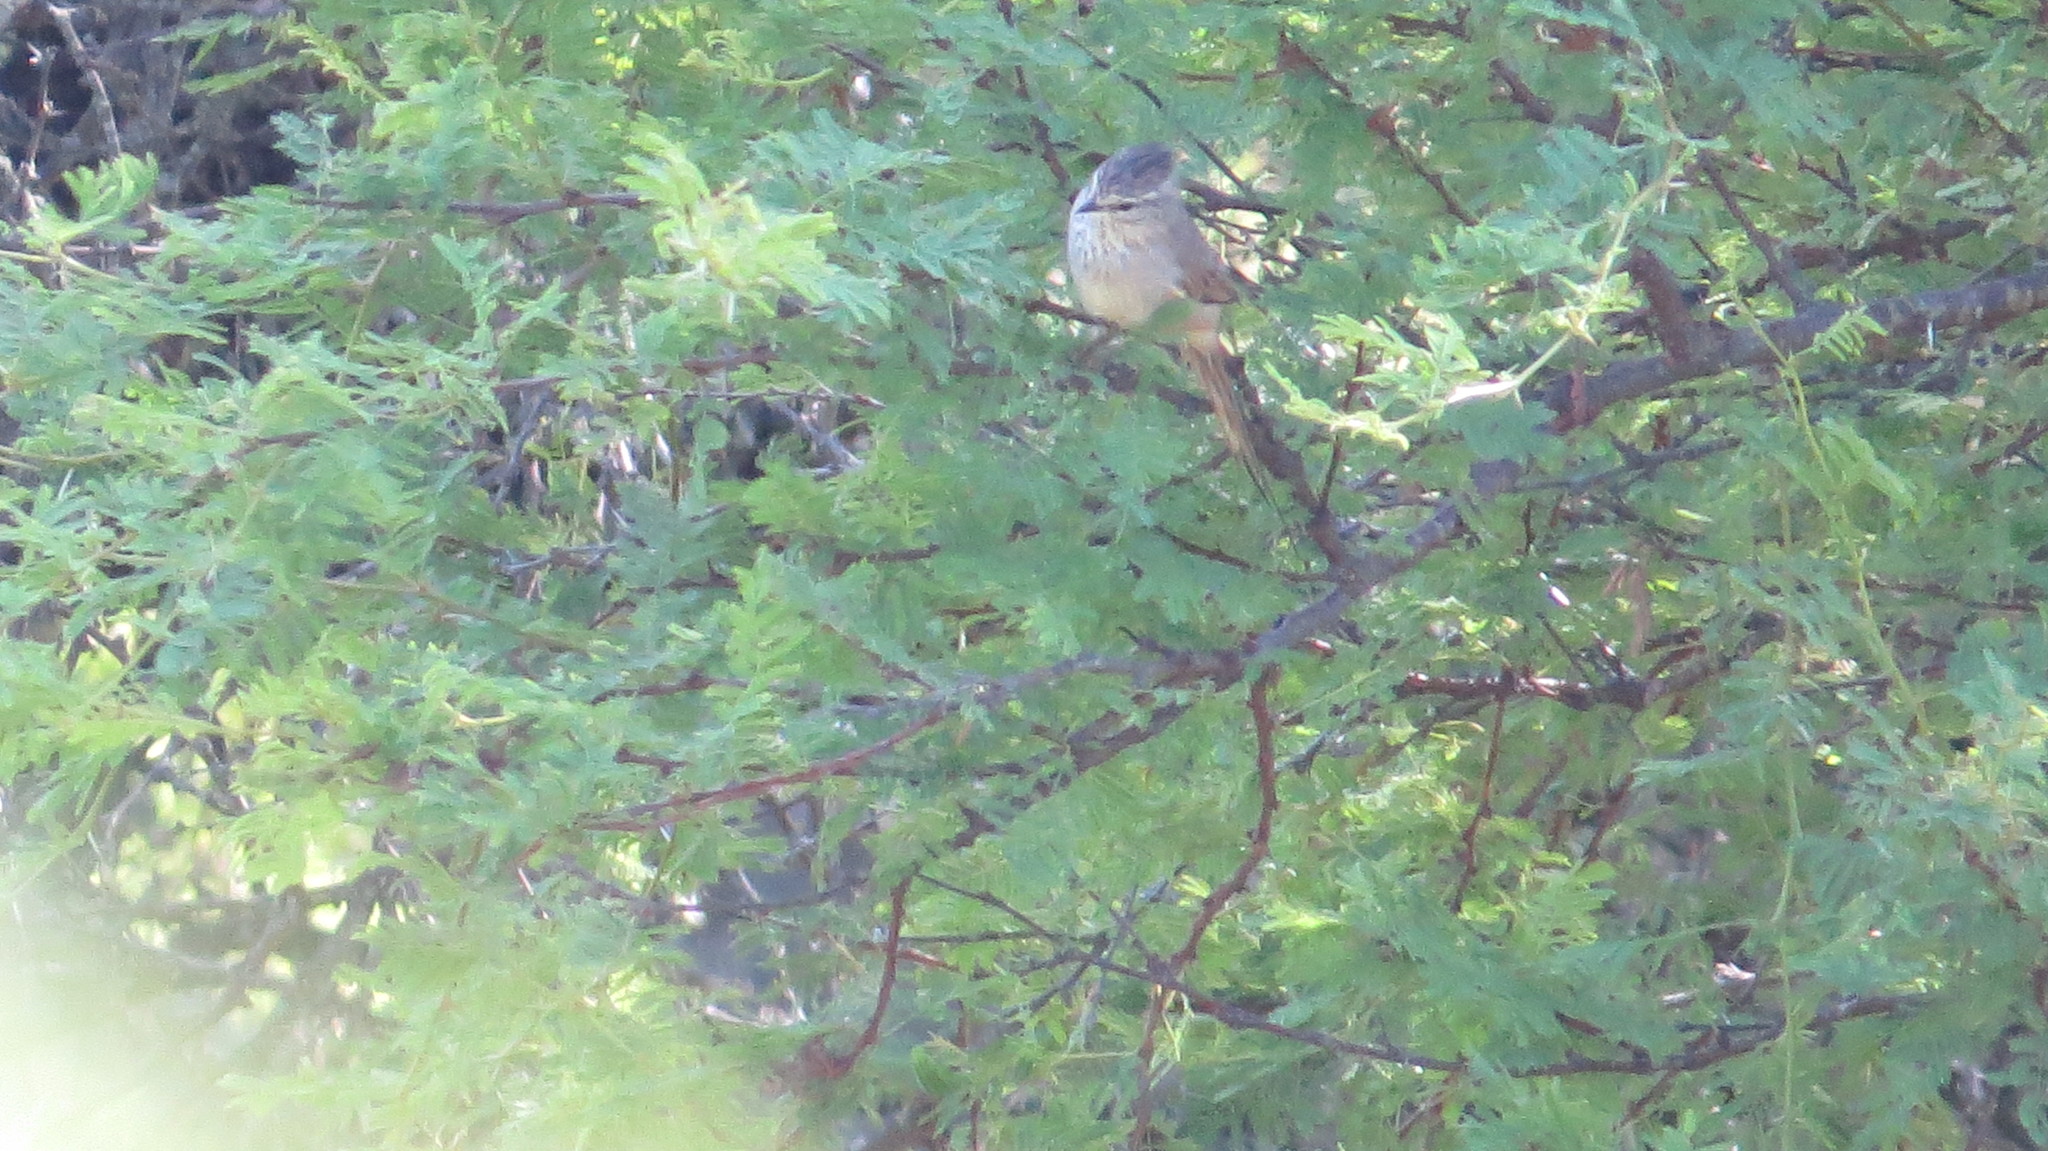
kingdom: Animalia
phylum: Chordata
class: Aves
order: Passeriformes
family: Furnariidae
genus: Leptasthenura
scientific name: Leptasthenura platensis
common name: Tufted tit-spinetail
